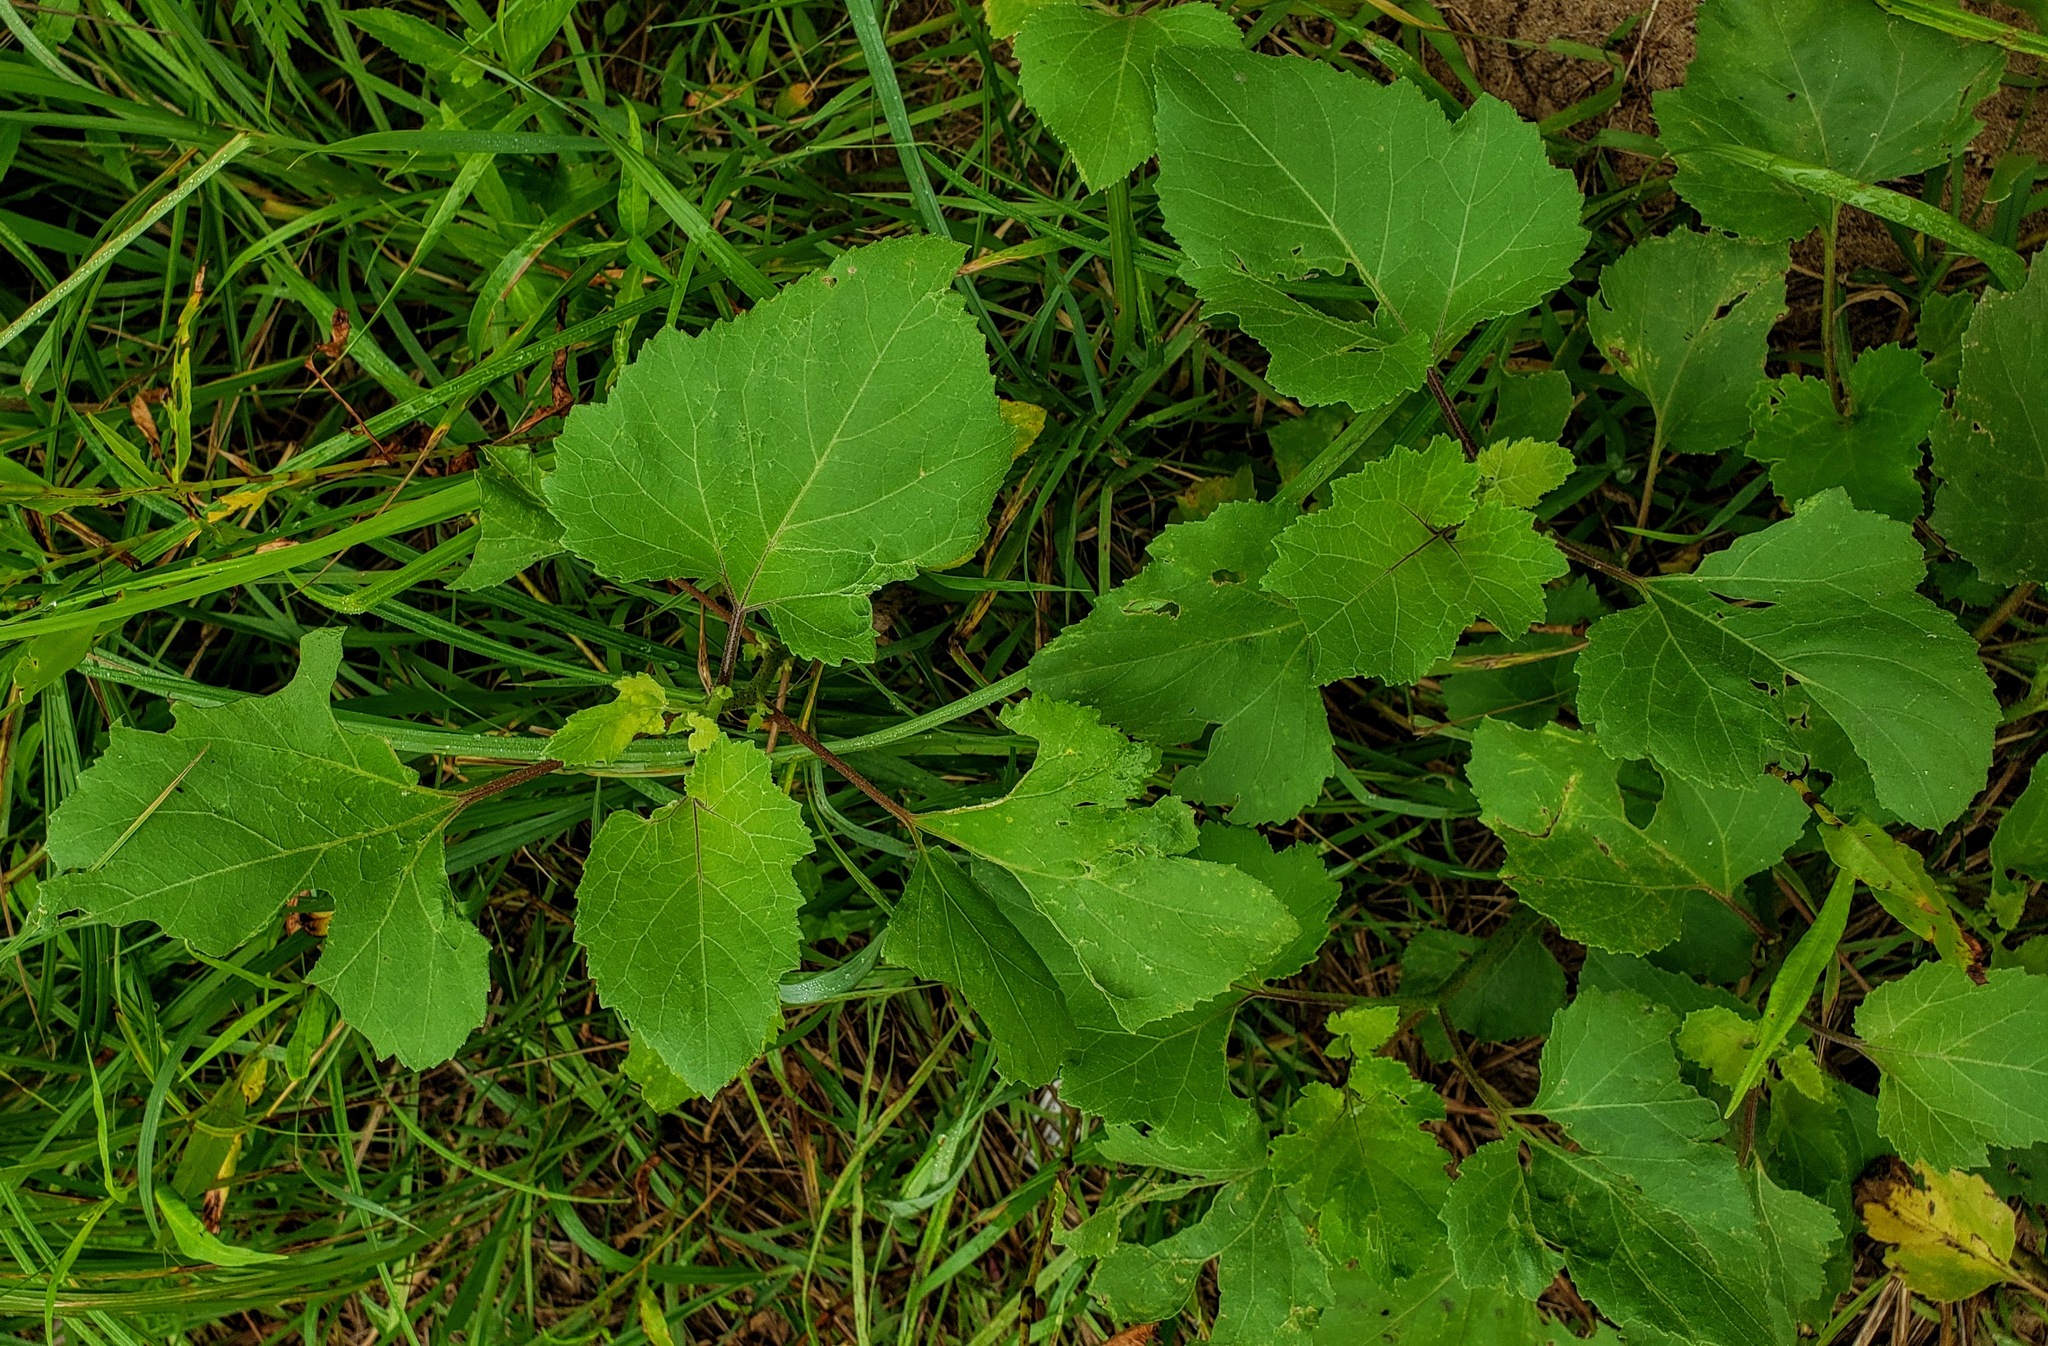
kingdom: Plantae
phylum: Tracheophyta
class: Magnoliopsida
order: Asterales
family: Asteraceae
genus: Xanthium
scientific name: Xanthium strumarium
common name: Rough cocklebur
